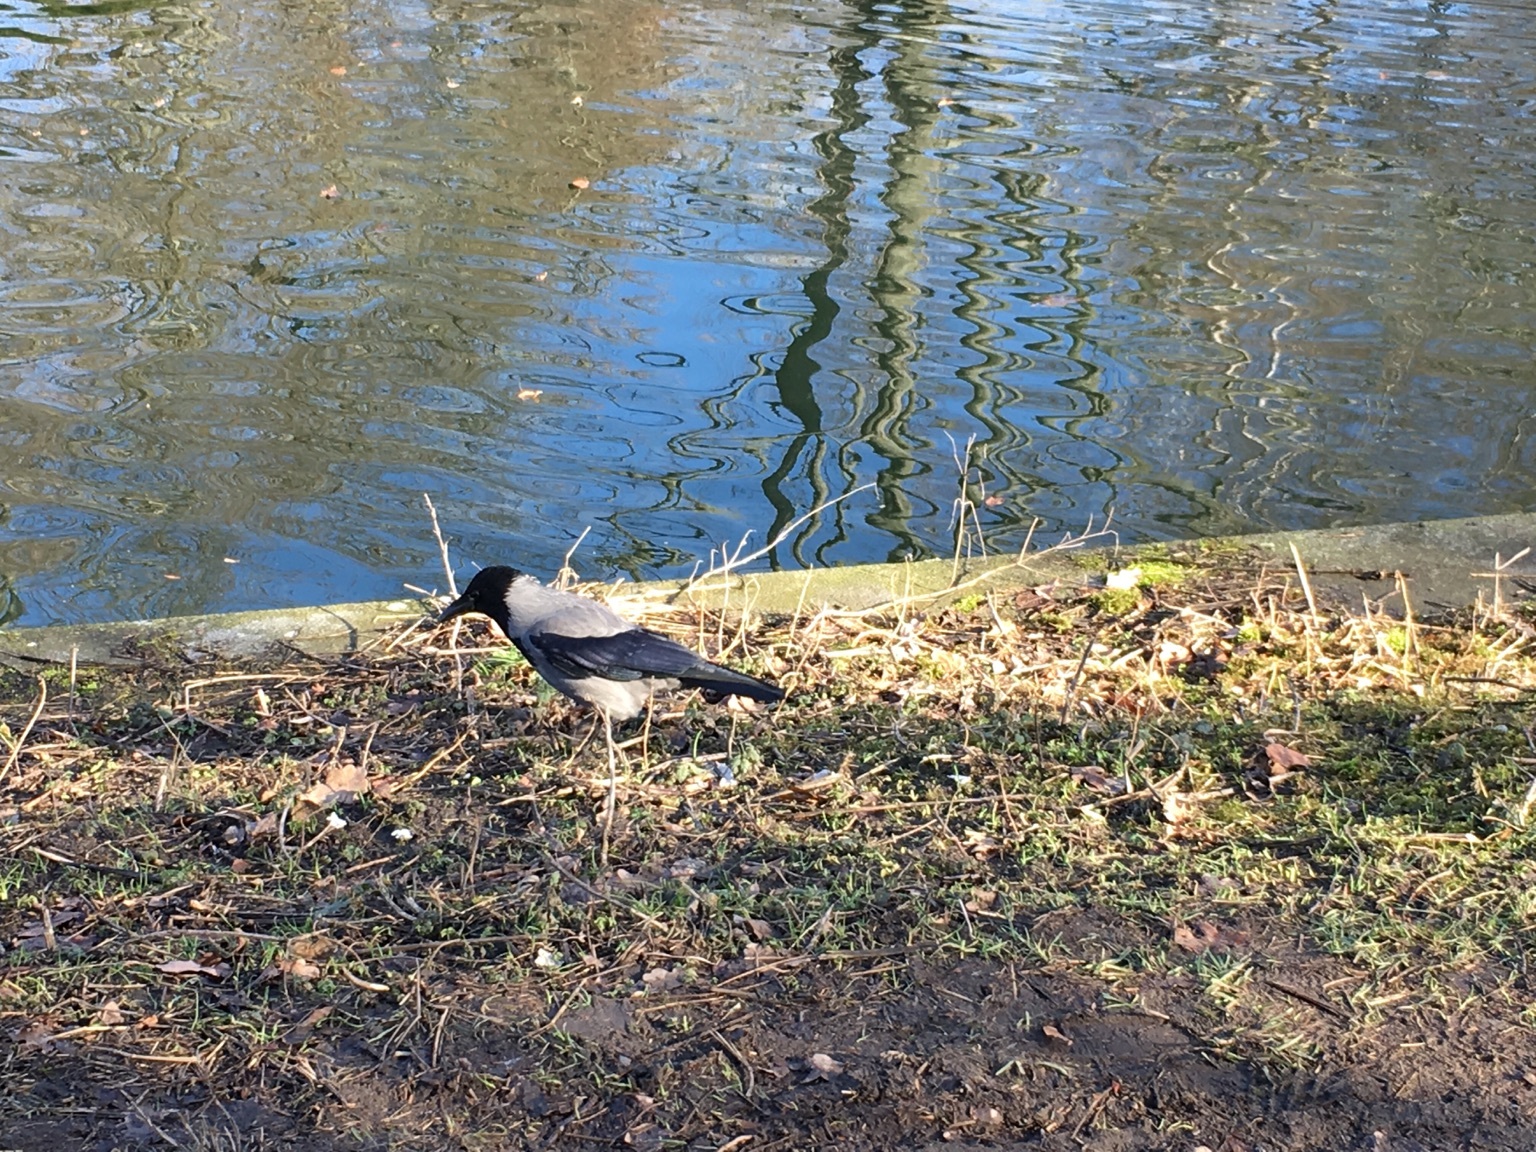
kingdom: Animalia
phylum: Chordata
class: Aves
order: Passeriformes
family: Corvidae
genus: Corvus
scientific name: Corvus cornix
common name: Hooded crow
